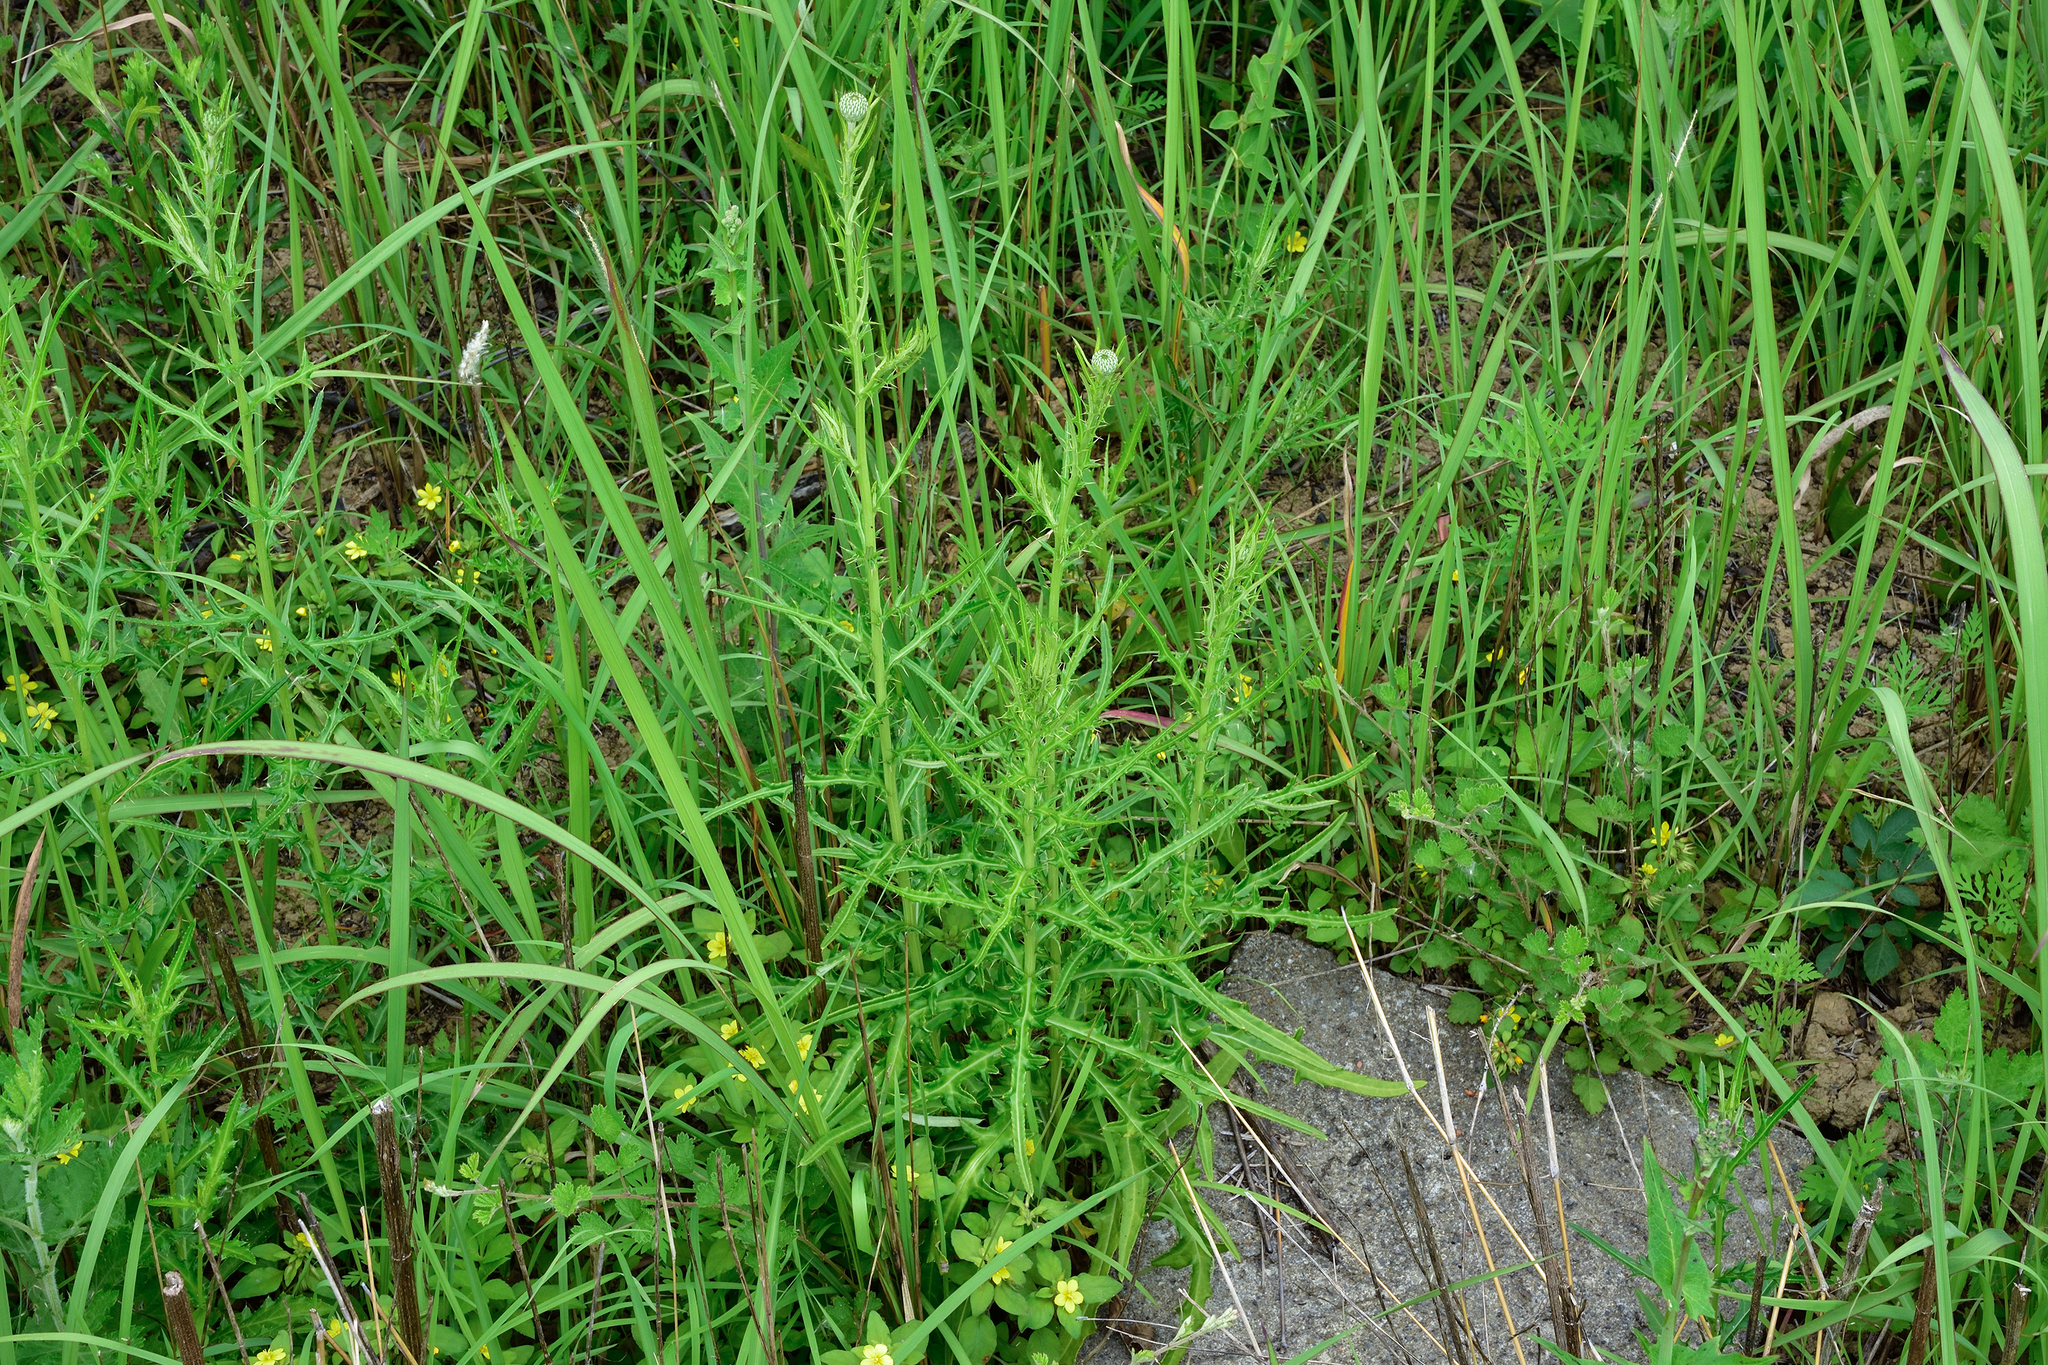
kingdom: Plantae
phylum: Tracheophyta
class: Magnoliopsida
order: Asterales
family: Asteraceae
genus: Cirsium
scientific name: Cirsium lineare
